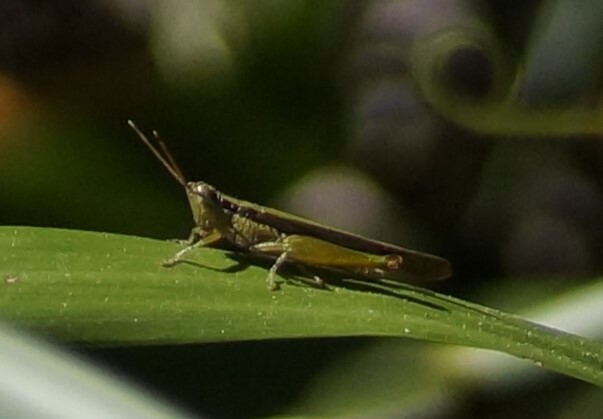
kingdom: Animalia
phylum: Arthropoda
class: Insecta
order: Orthoptera
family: Acrididae
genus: Bermius
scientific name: Bermius curvicercus
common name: Sorghum bermius
